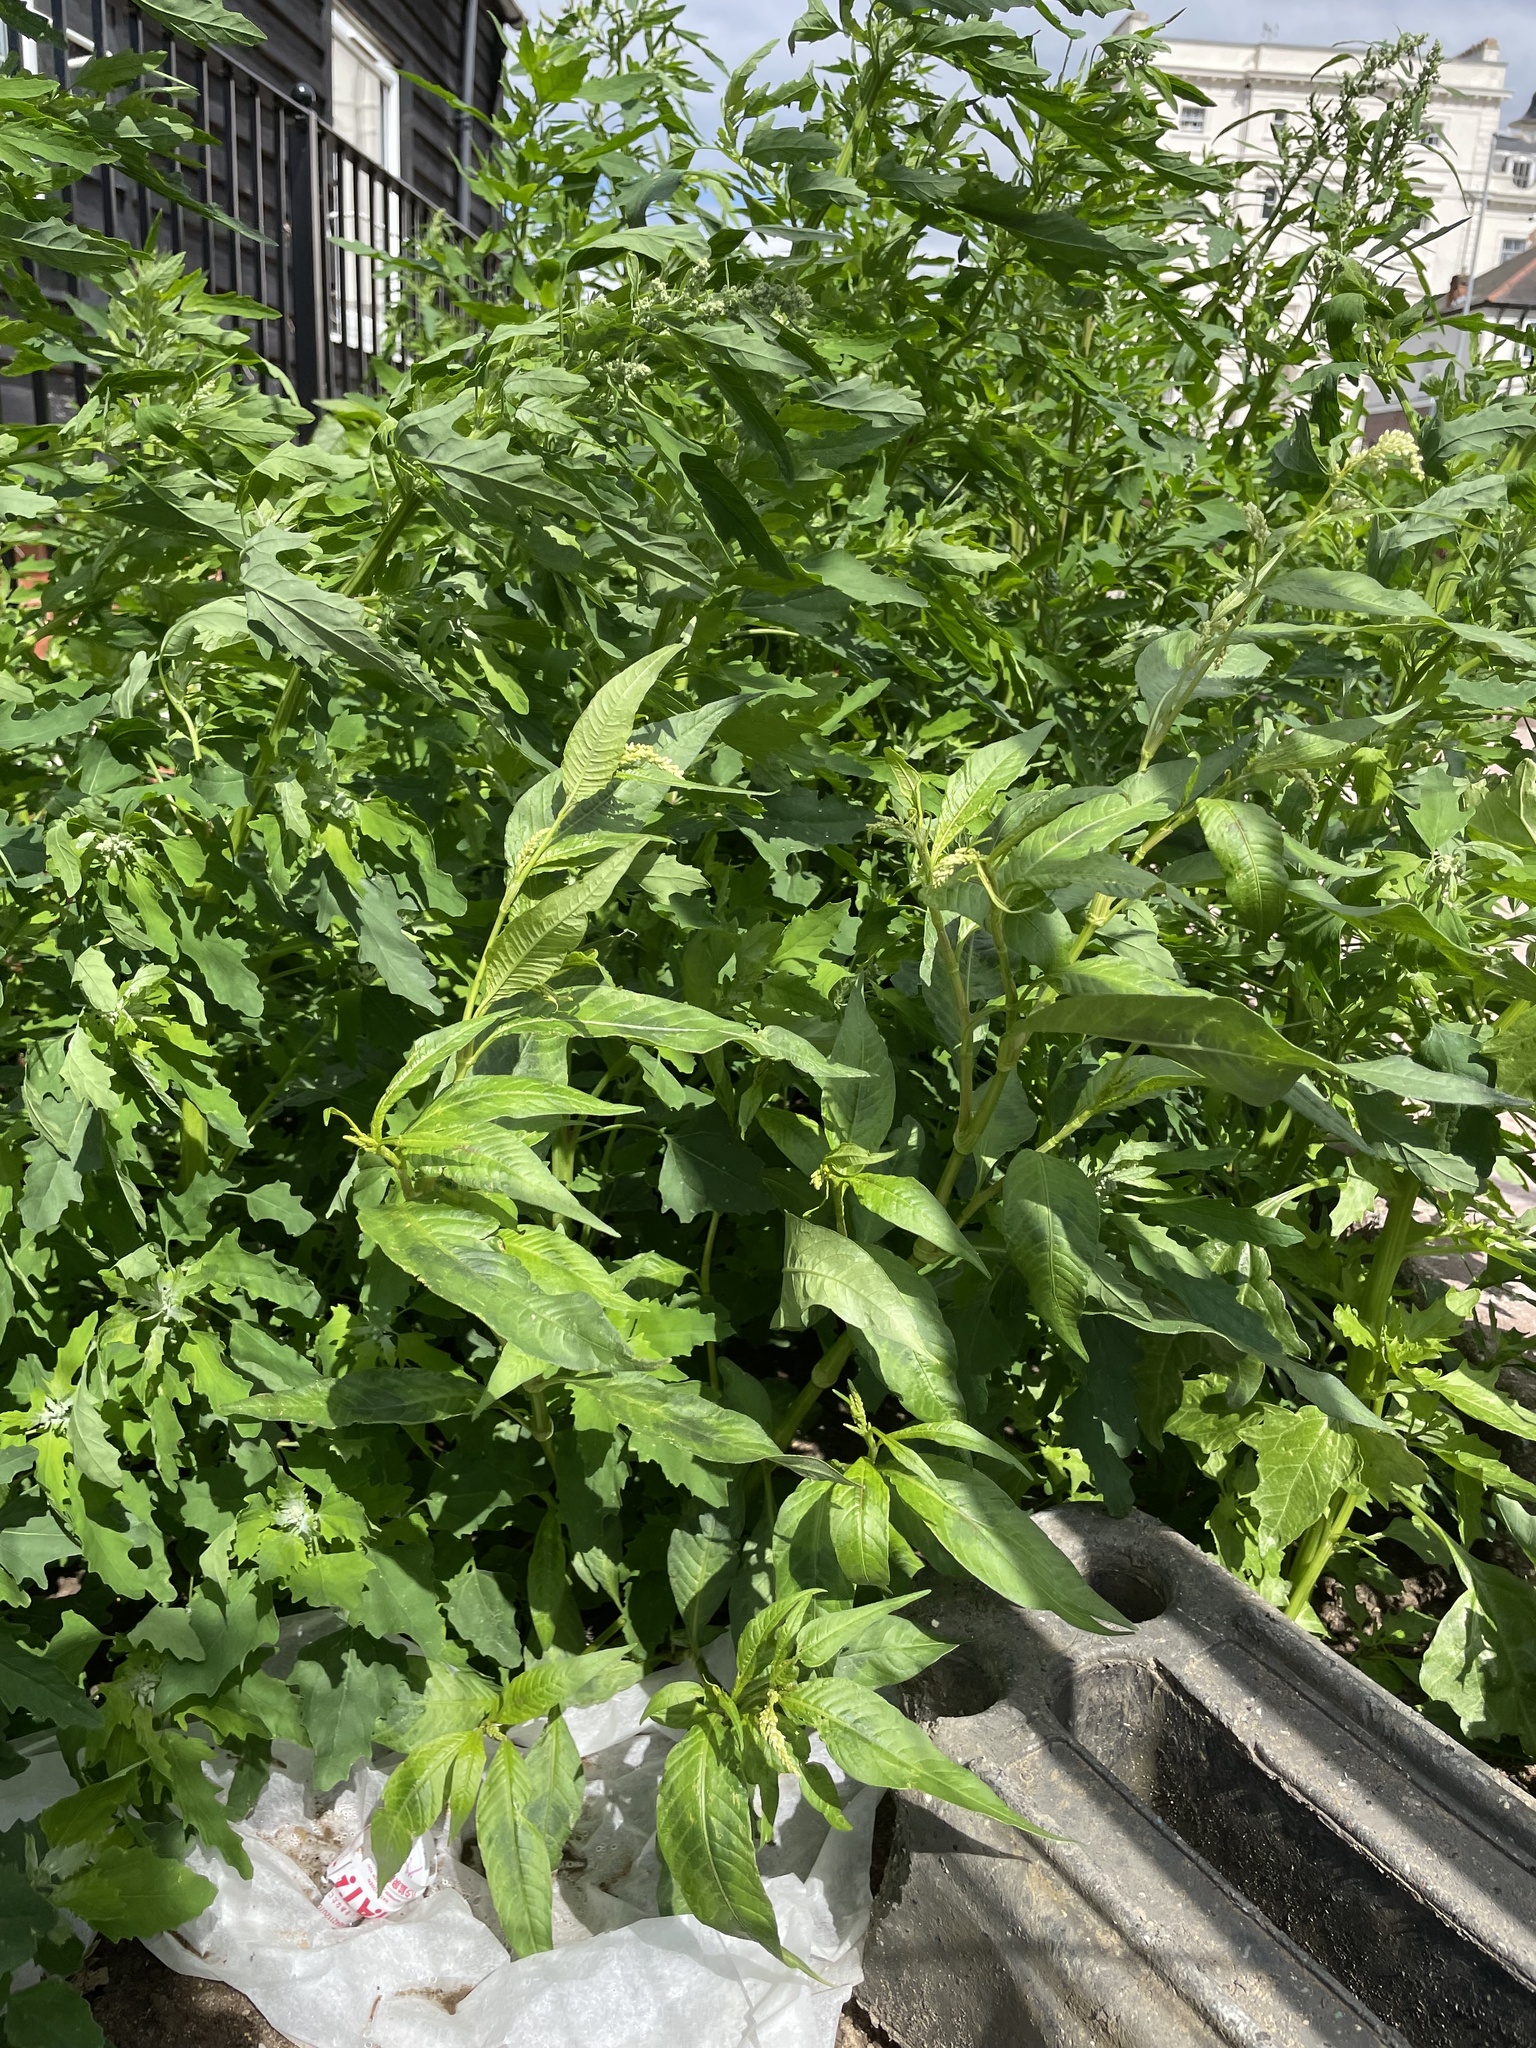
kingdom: Plantae
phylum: Tracheophyta
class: Magnoliopsida
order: Caryophyllales
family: Polygonaceae
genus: Persicaria
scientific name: Persicaria lapathifolia
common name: Curlytop knotweed
